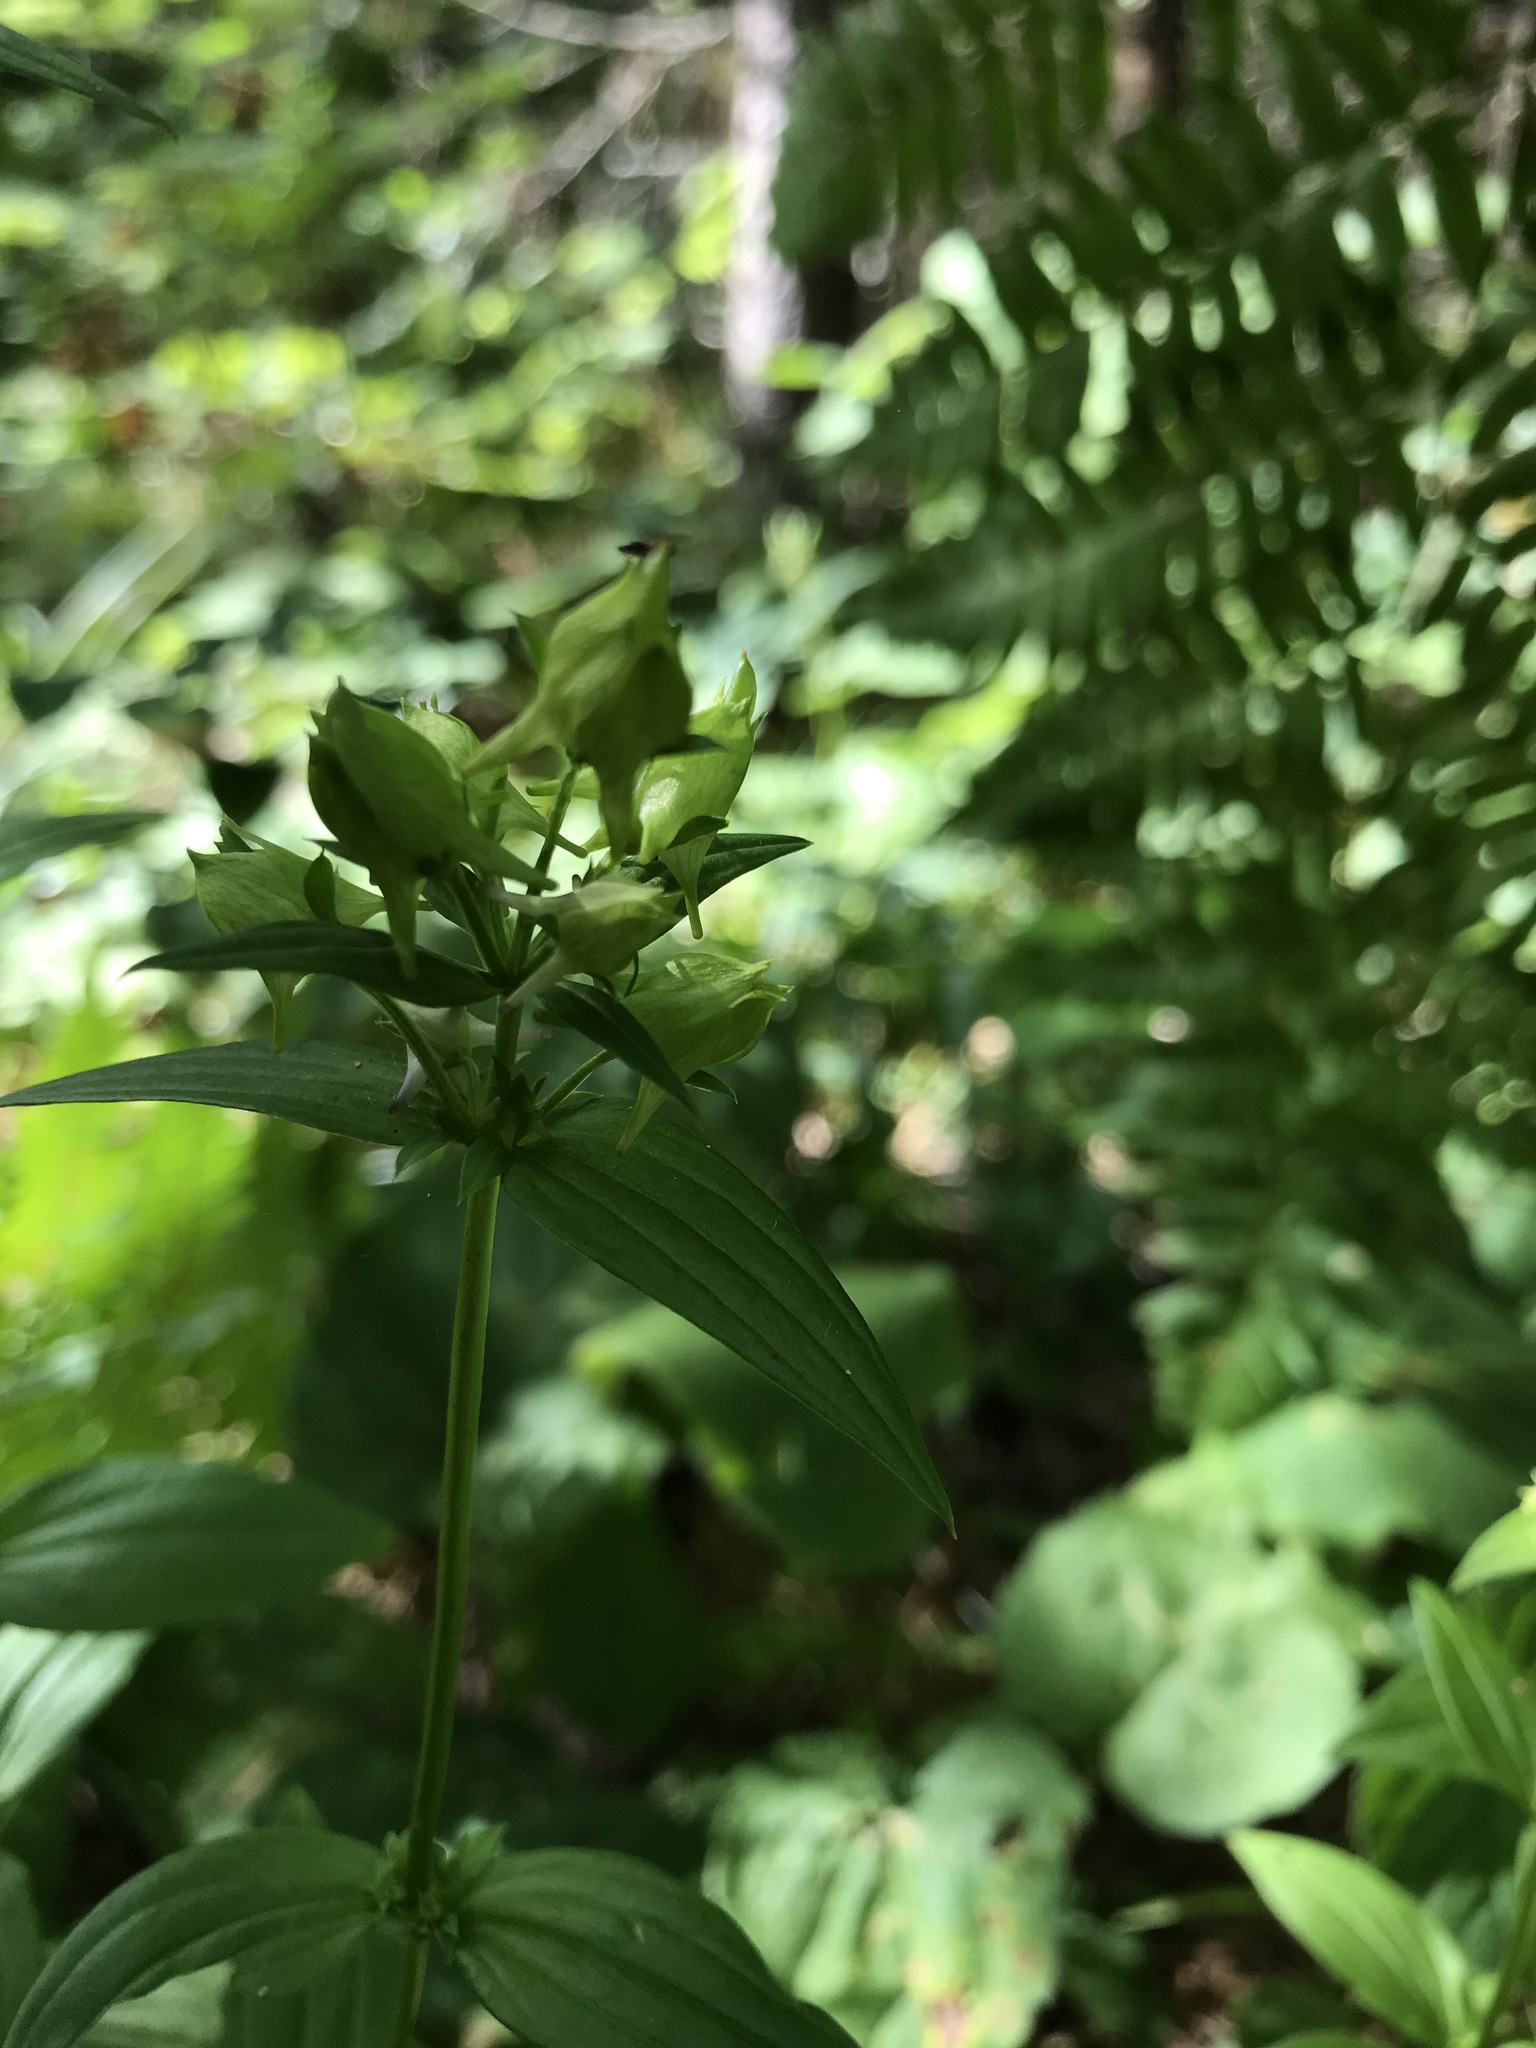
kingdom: Plantae
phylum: Tracheophyta
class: Magnoliopsida
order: Gentianales
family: Gentianaceae
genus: Halenia
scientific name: Halenia deflexa
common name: American spurred gentian
